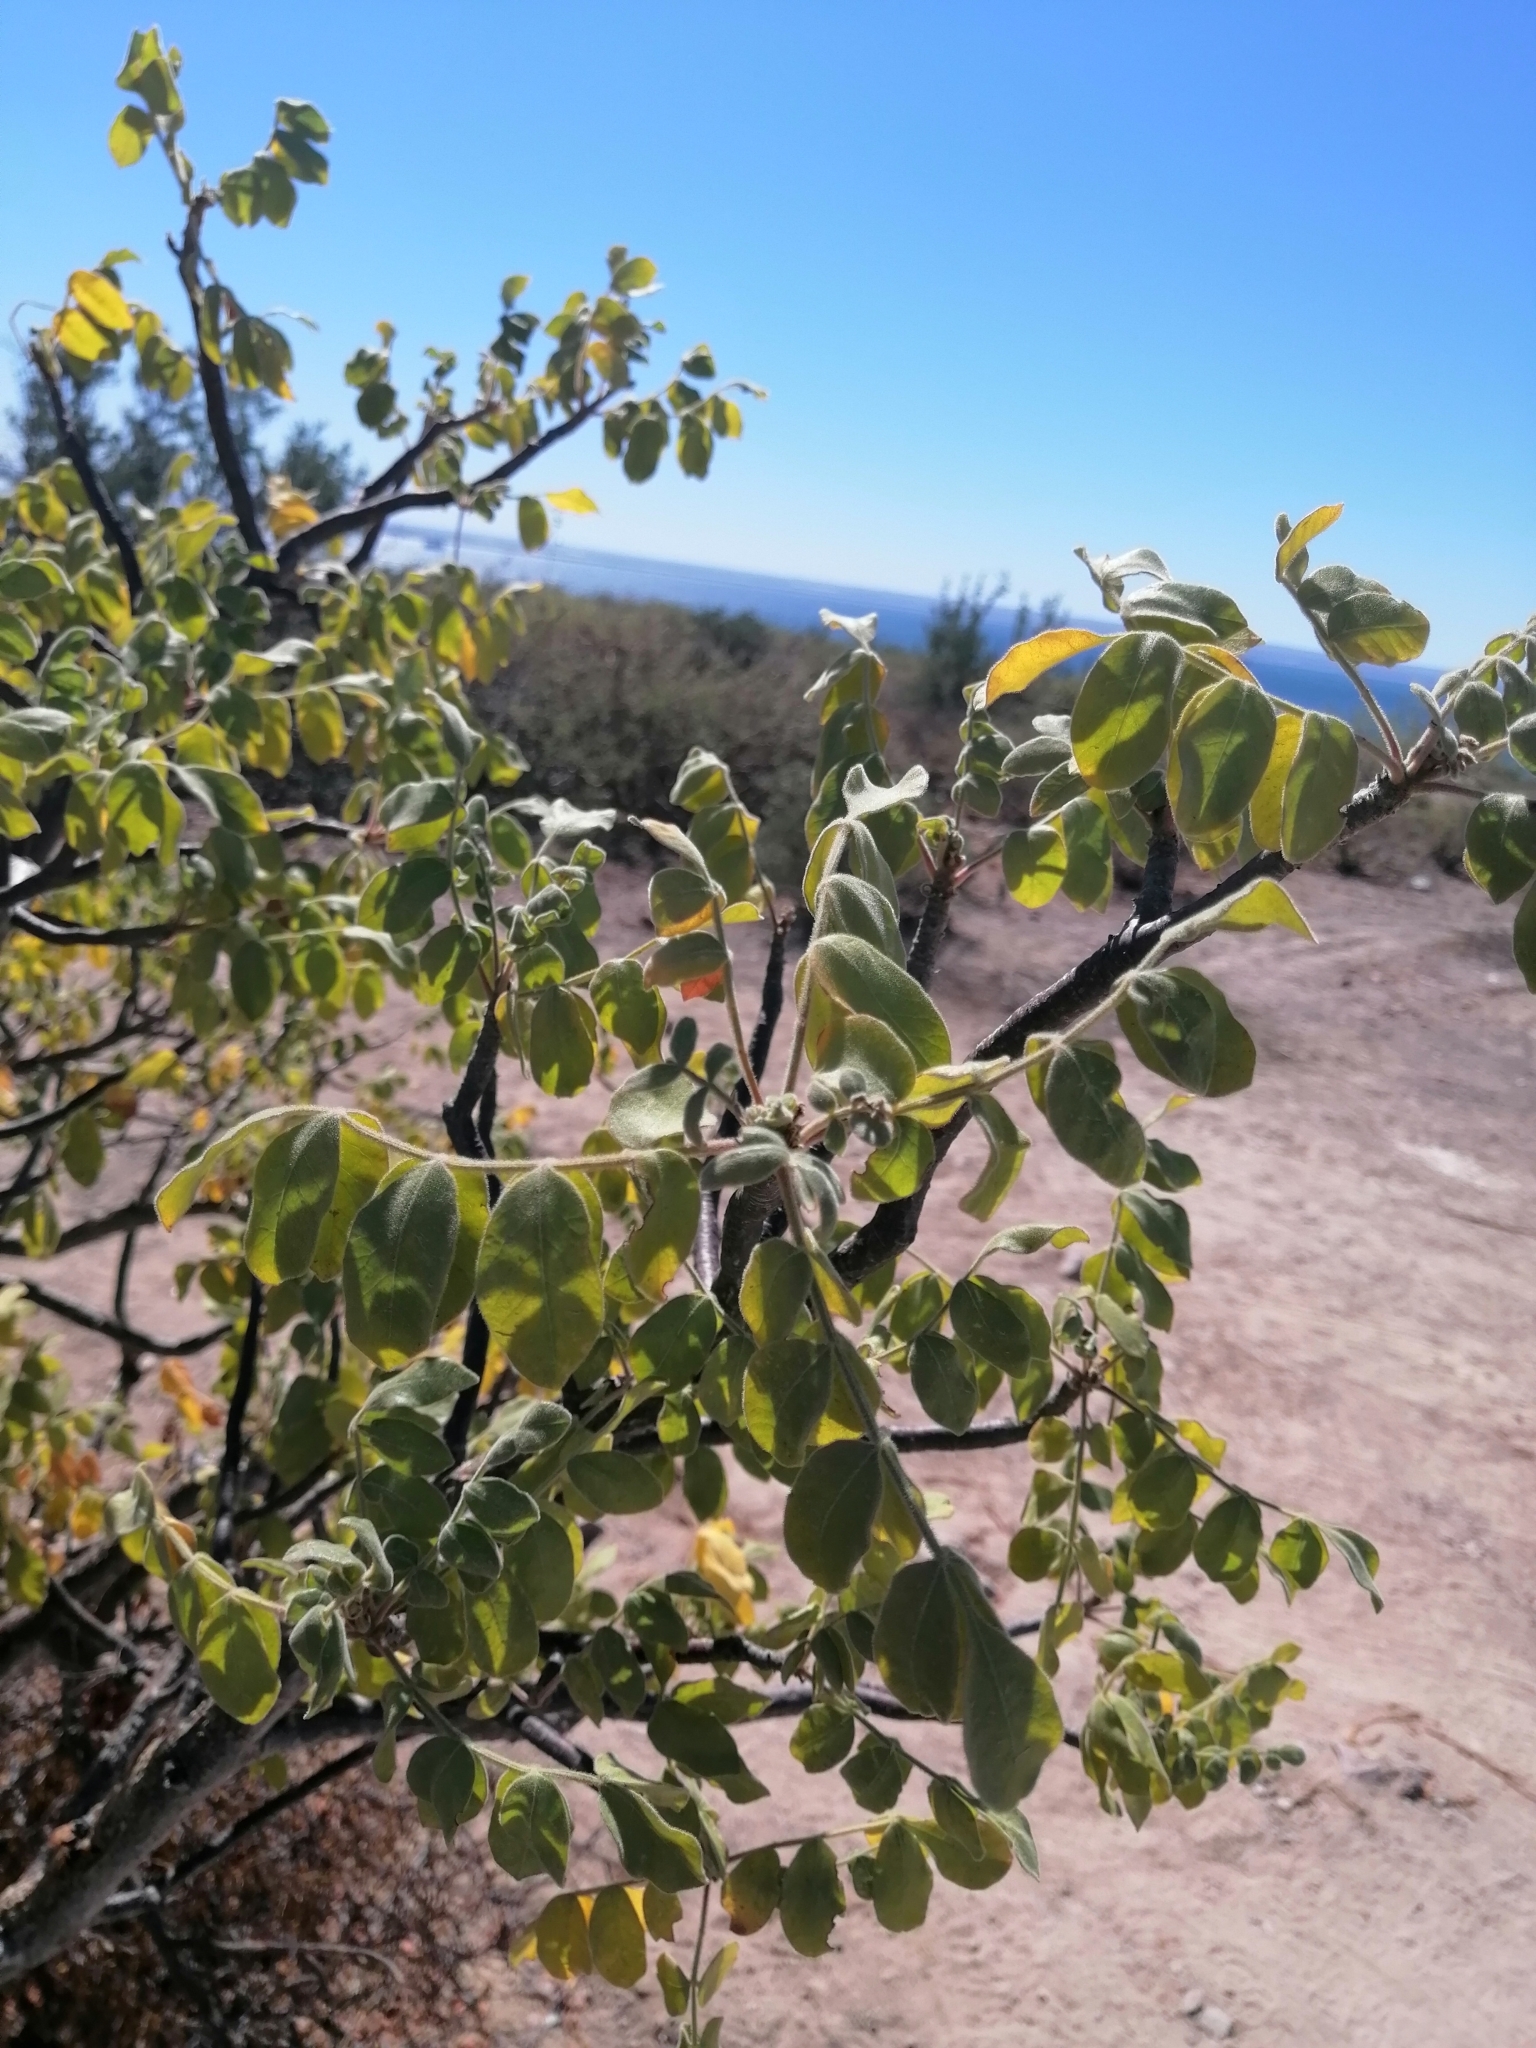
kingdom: Plantae
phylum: Tracheophyta
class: Magnoliopsida
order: Sapindales
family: Anacardiaceae
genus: Cyrtocarpa
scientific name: Cyrtocarpa edulis
